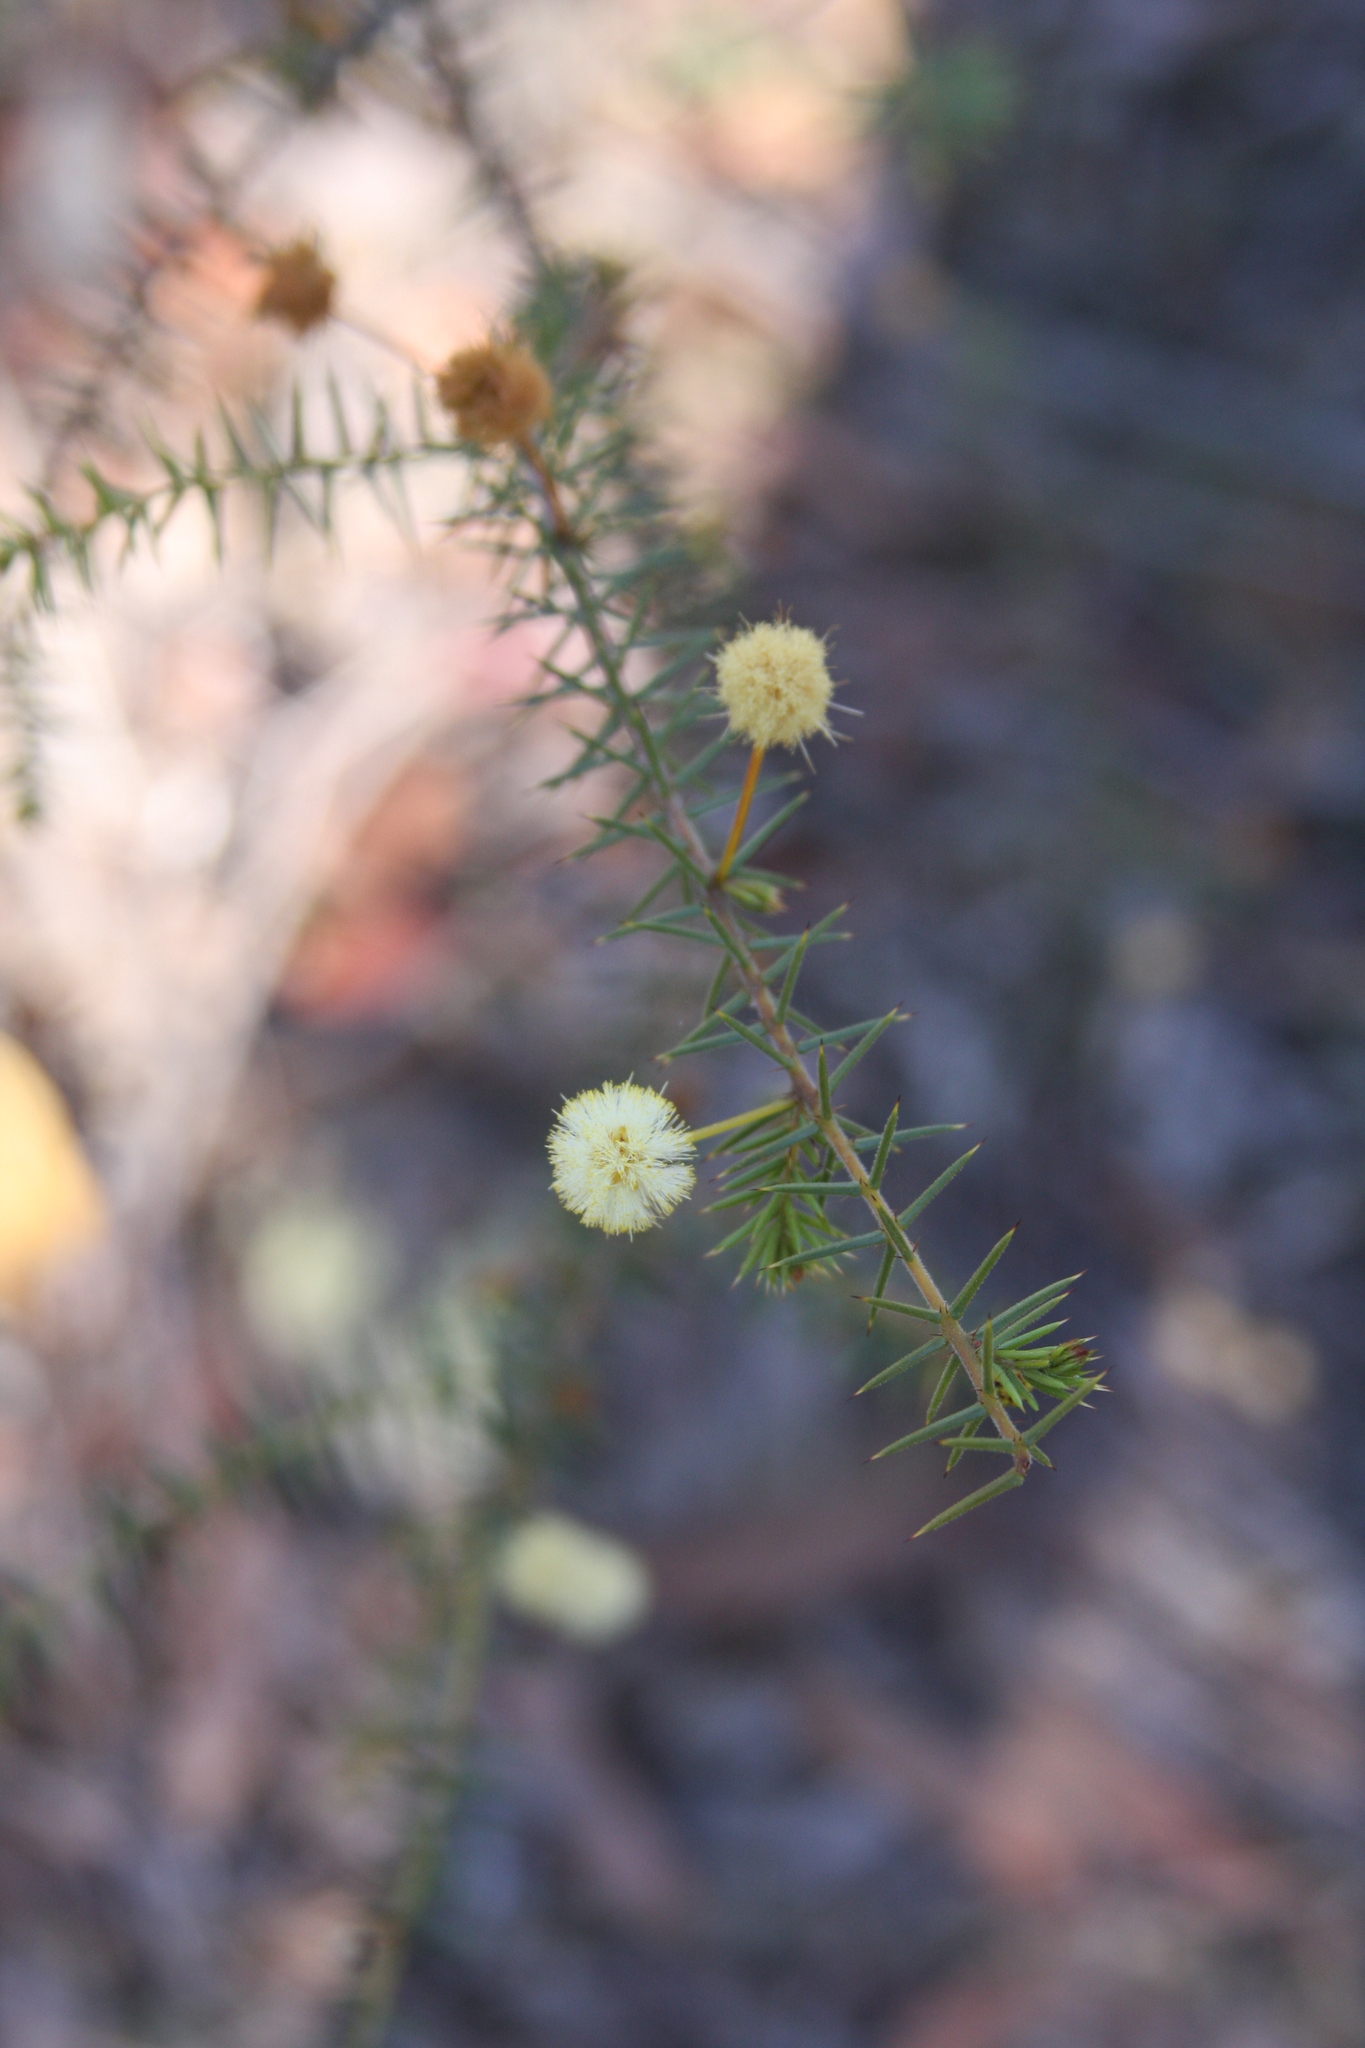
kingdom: Plantae
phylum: Tracheophyta
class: Magnoliopsida
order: Fabales
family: Fabaceae
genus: Acacia
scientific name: Acacia ulicifolia
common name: Juniper wattle
